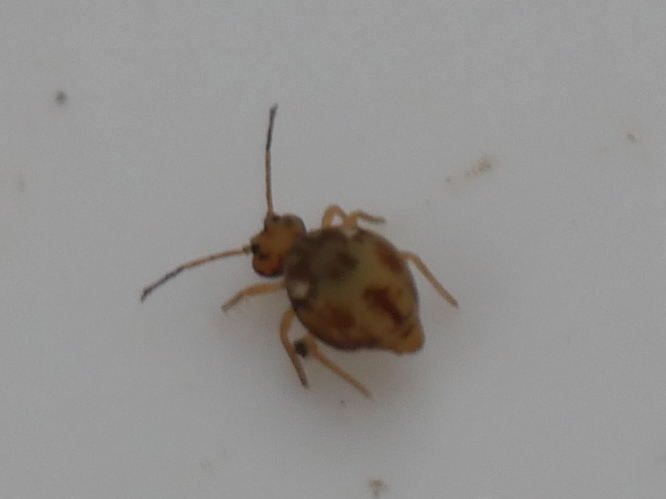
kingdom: Animalia
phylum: Arthropoda
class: Collembola
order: Symphypleona
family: Dicyrtomidae
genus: Dicyrtomina
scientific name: Dicyrtomina saundersi
